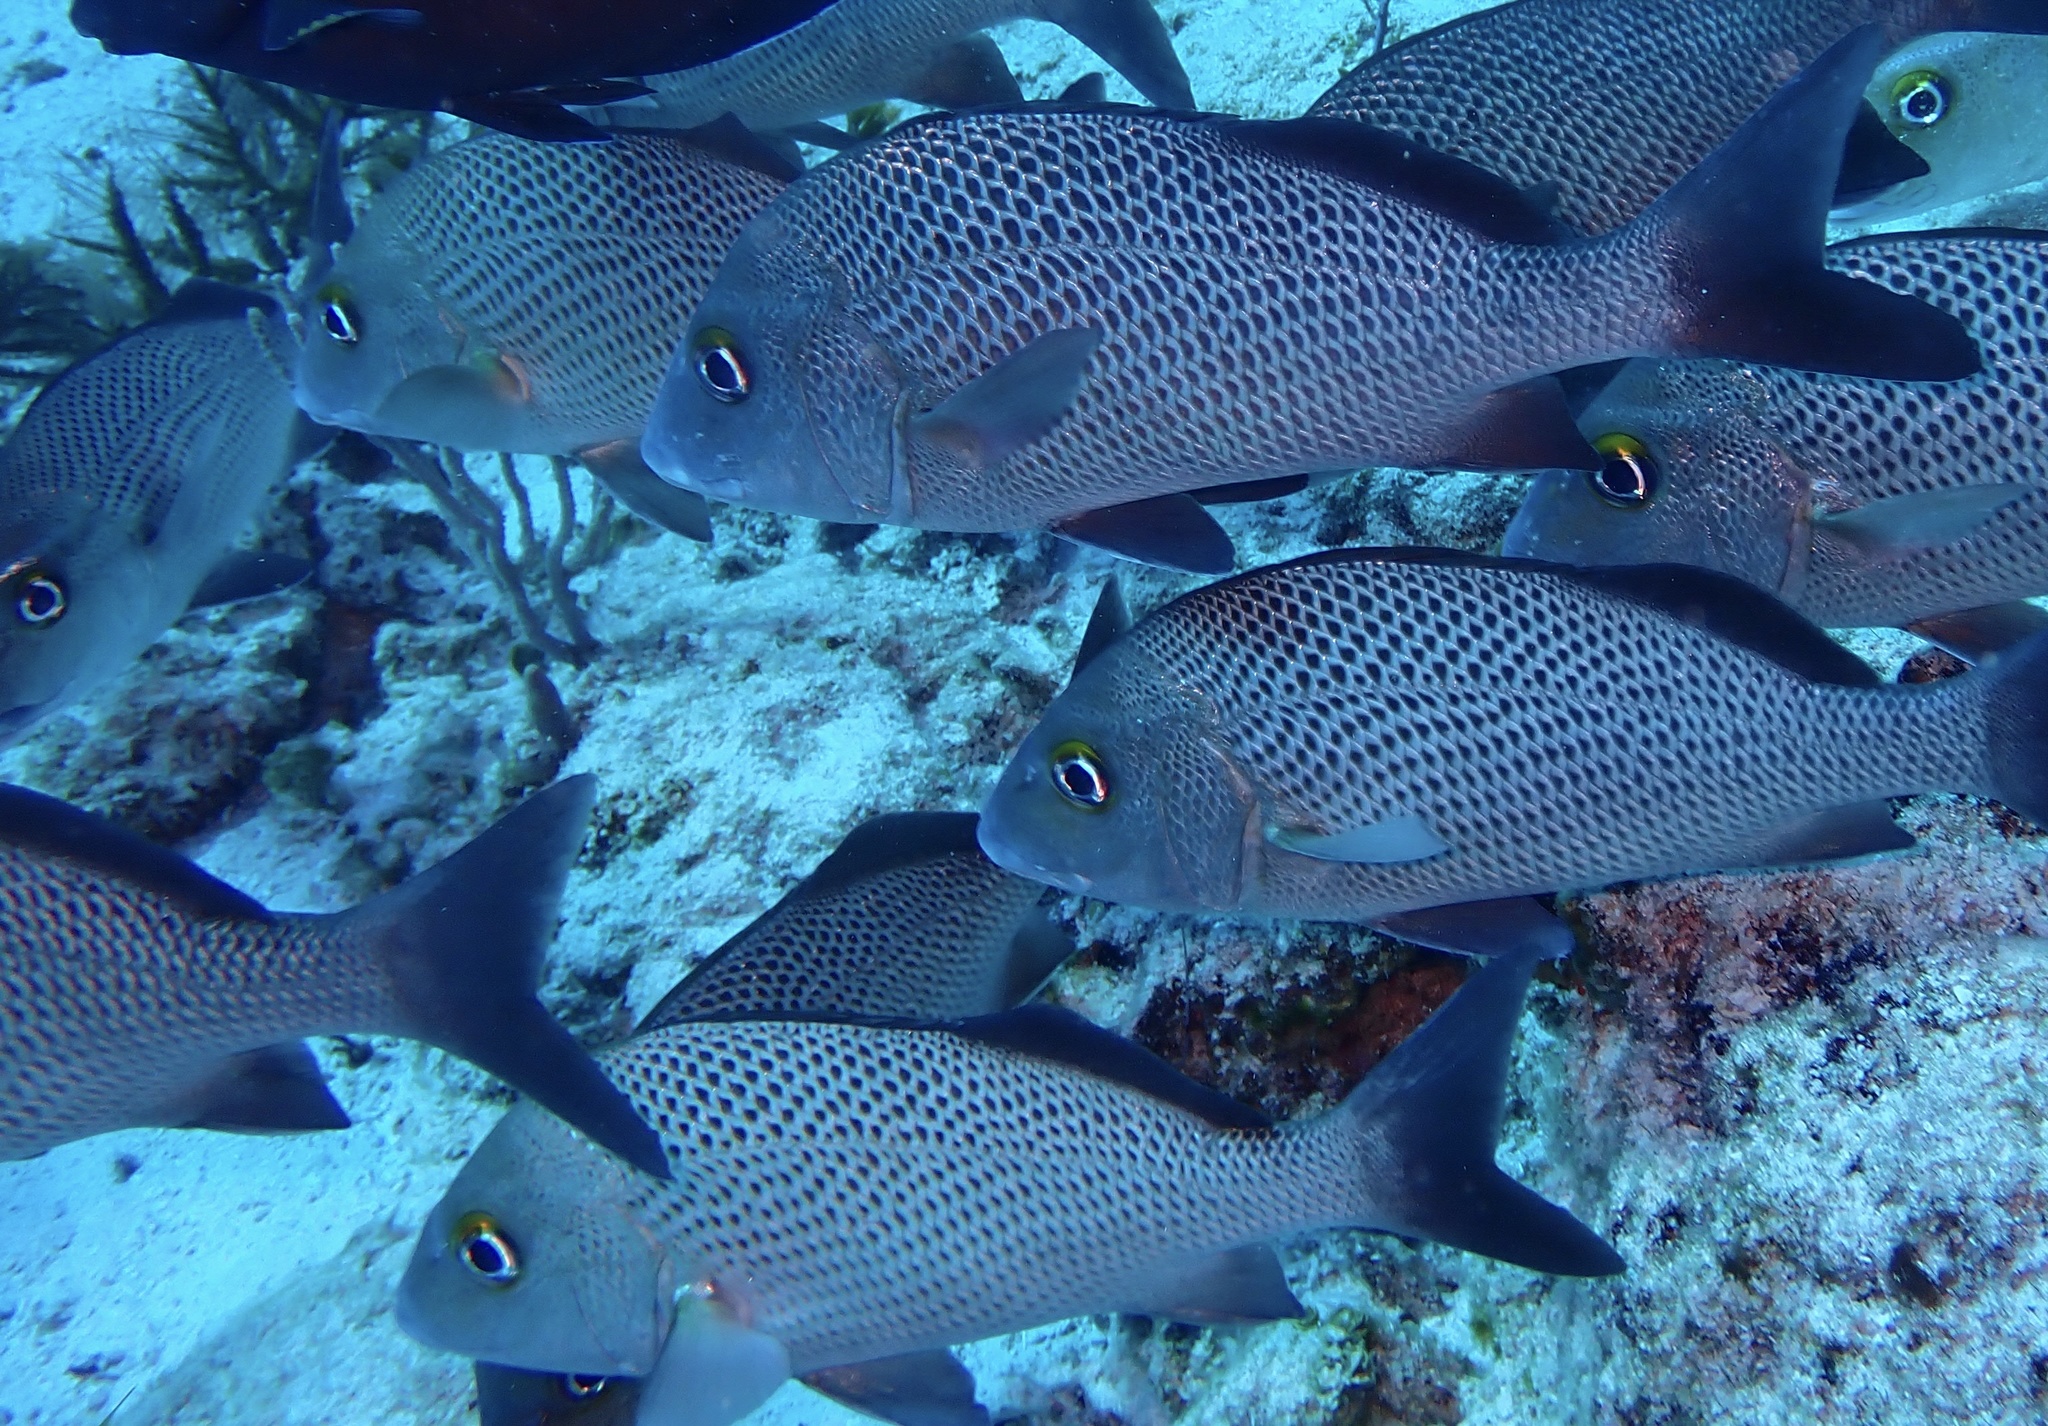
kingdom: Animalia
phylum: Chordata
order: Perciformes
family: Haemulidae
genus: Haemulon
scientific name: Haemulon parra
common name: Sailor's choice
